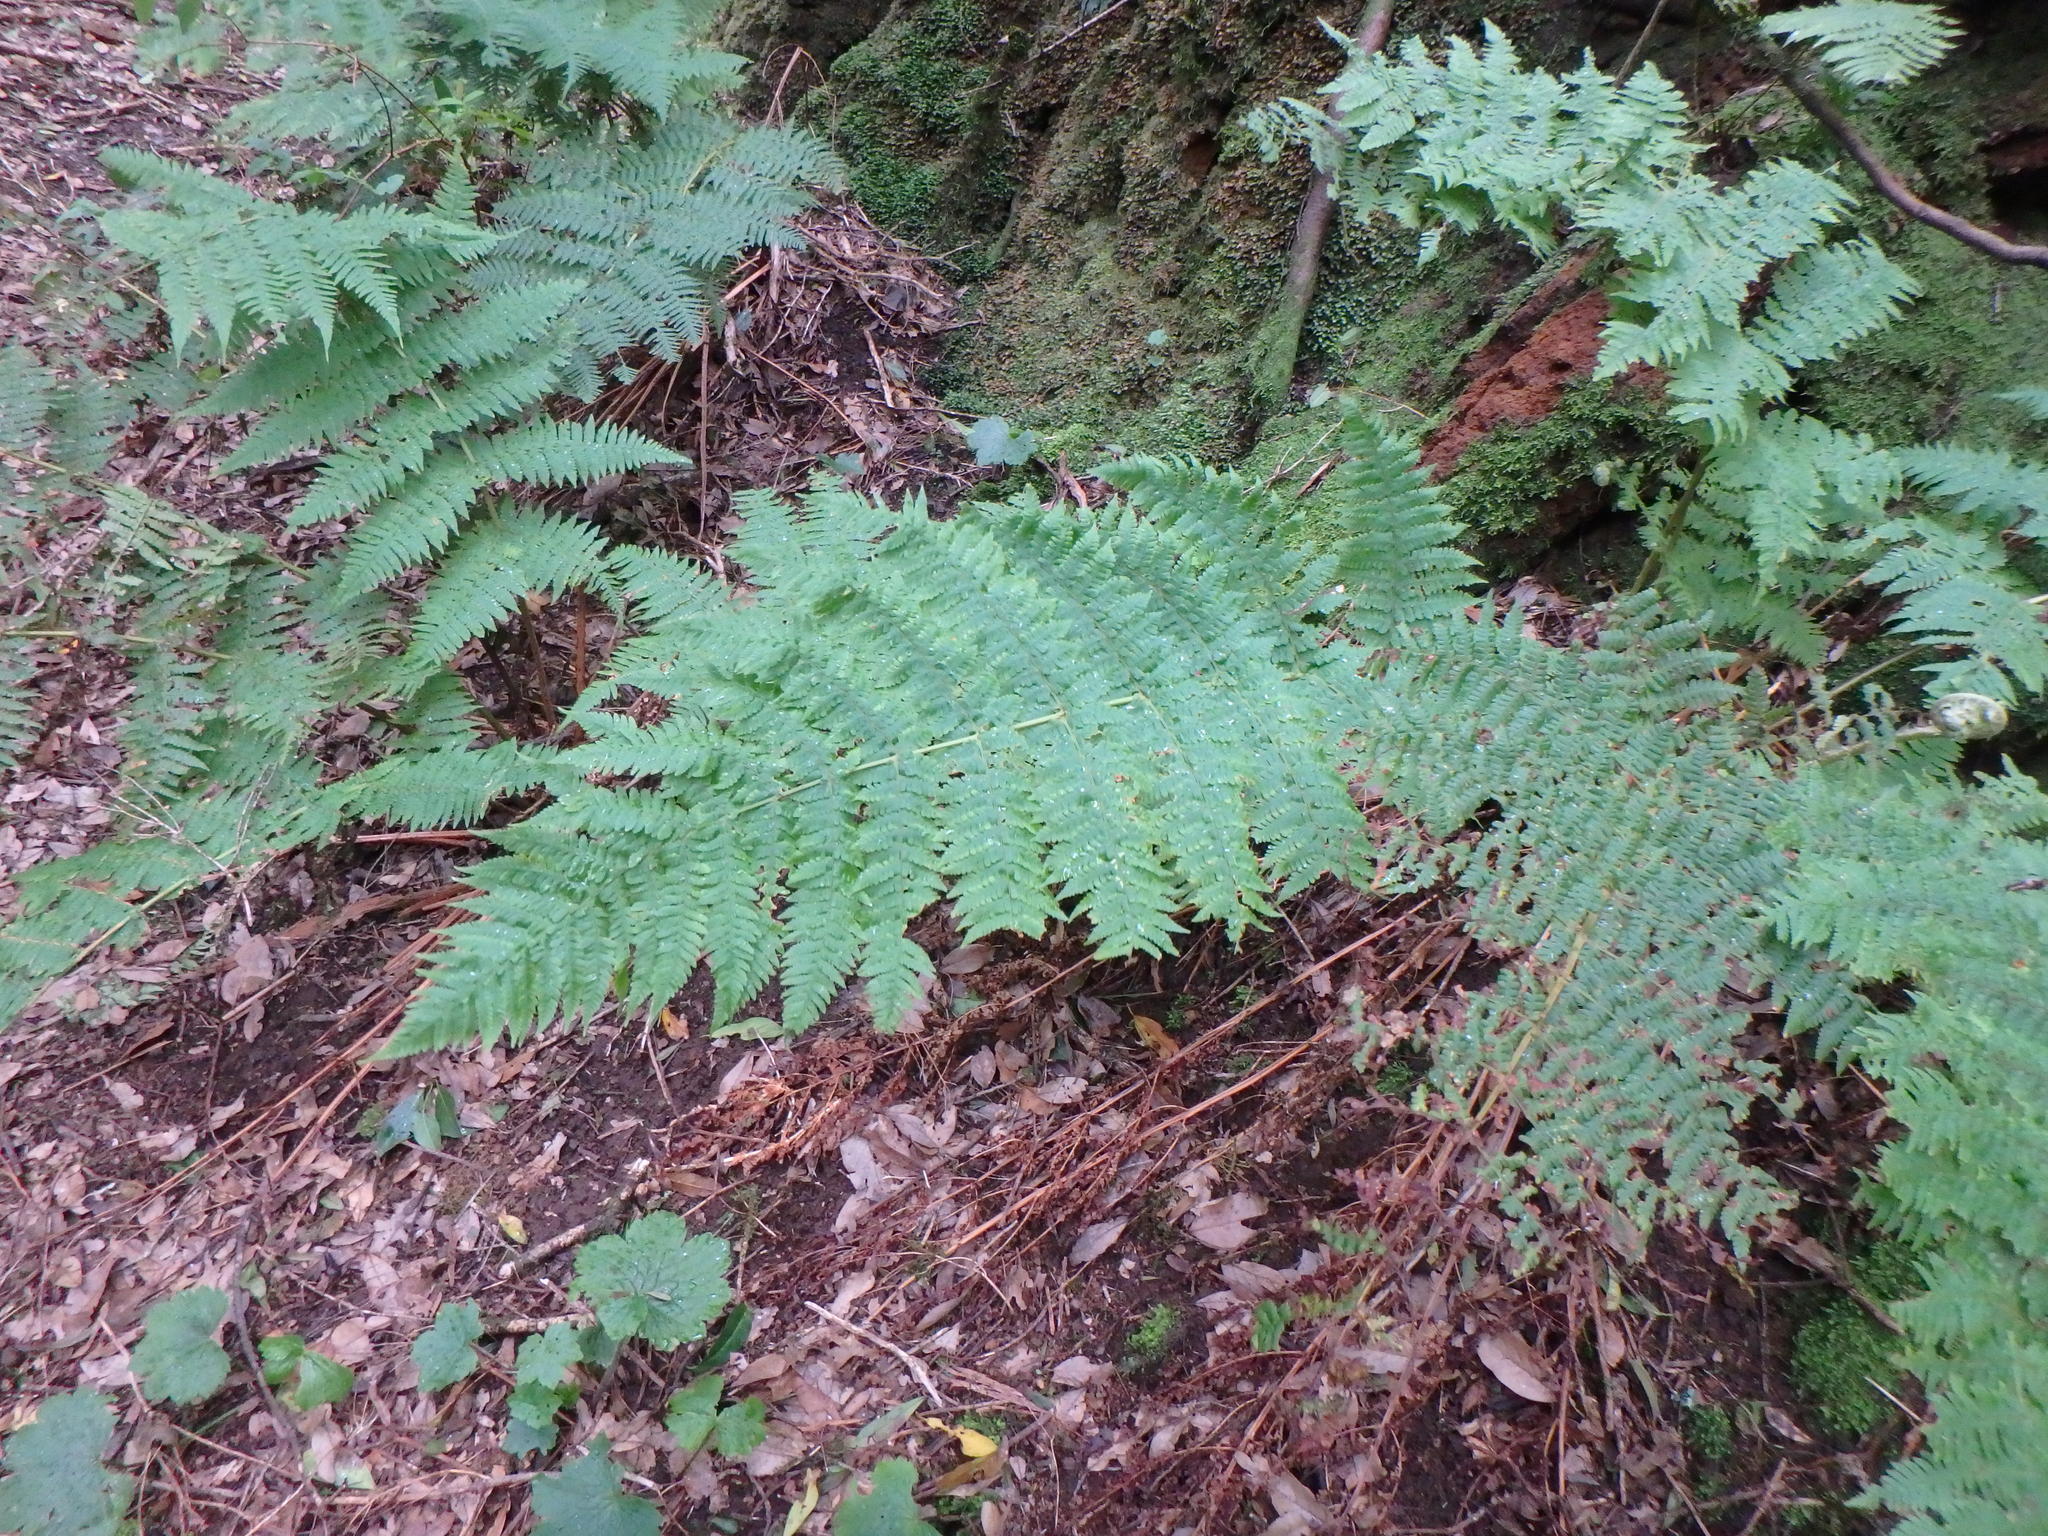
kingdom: Plantae
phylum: Tracheophyta
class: Polypodiopsida
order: Polypodiales
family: Dryopteridaceae
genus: Dryopteris
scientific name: Dryopteris oligodonta
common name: Canarian male-fern
